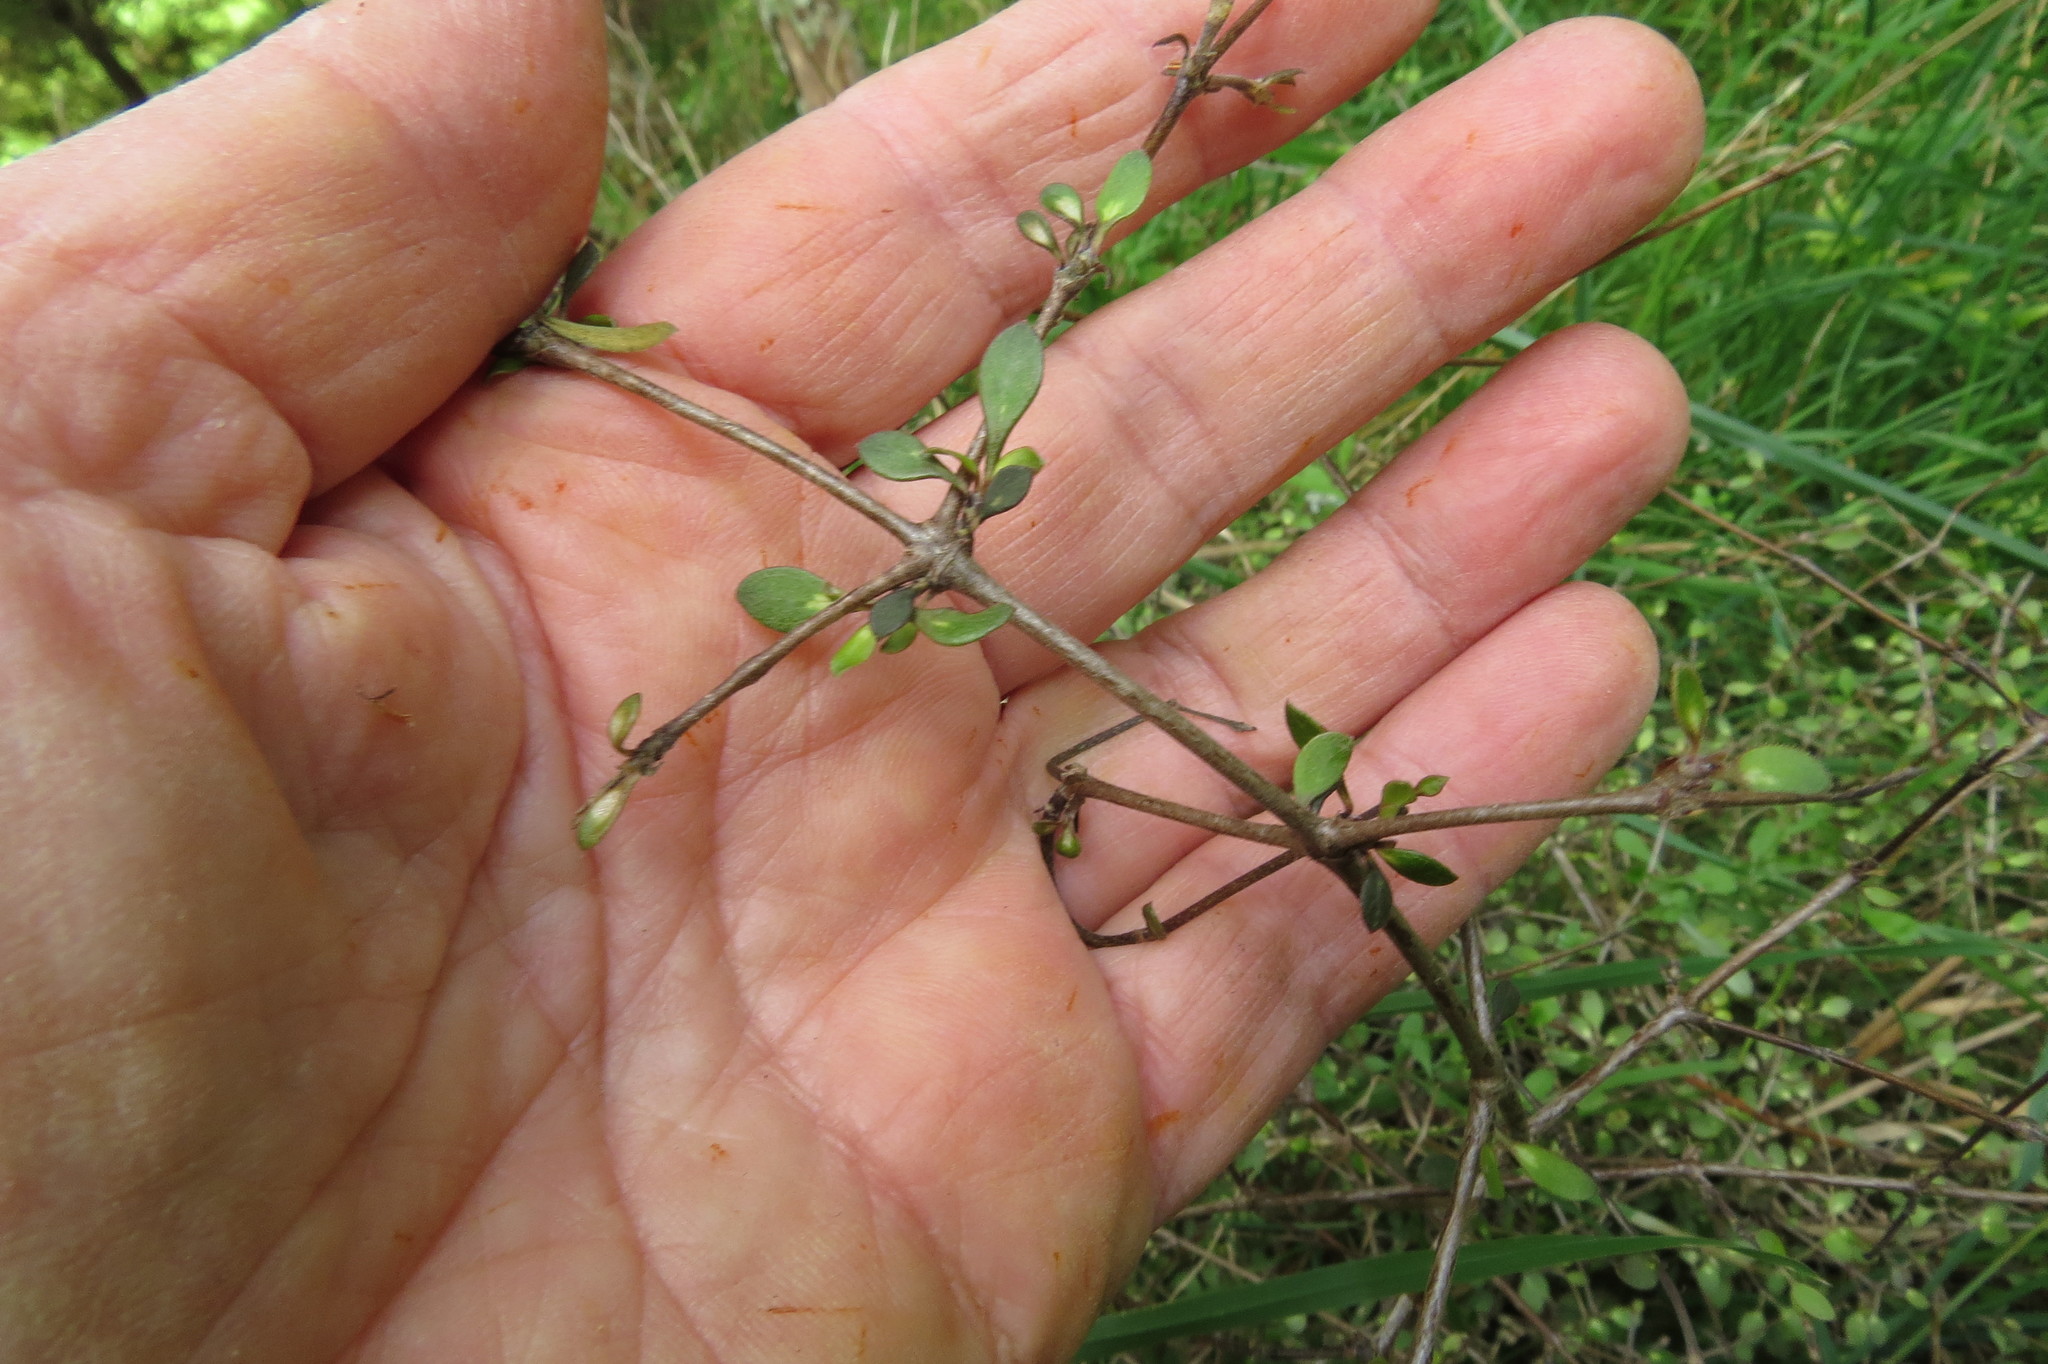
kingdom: Plantae
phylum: Tracheophyta
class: Magnoliopsida
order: Gentianales
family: Rubiaceae
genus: Coprosma
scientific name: Coprosma rhamnoides
